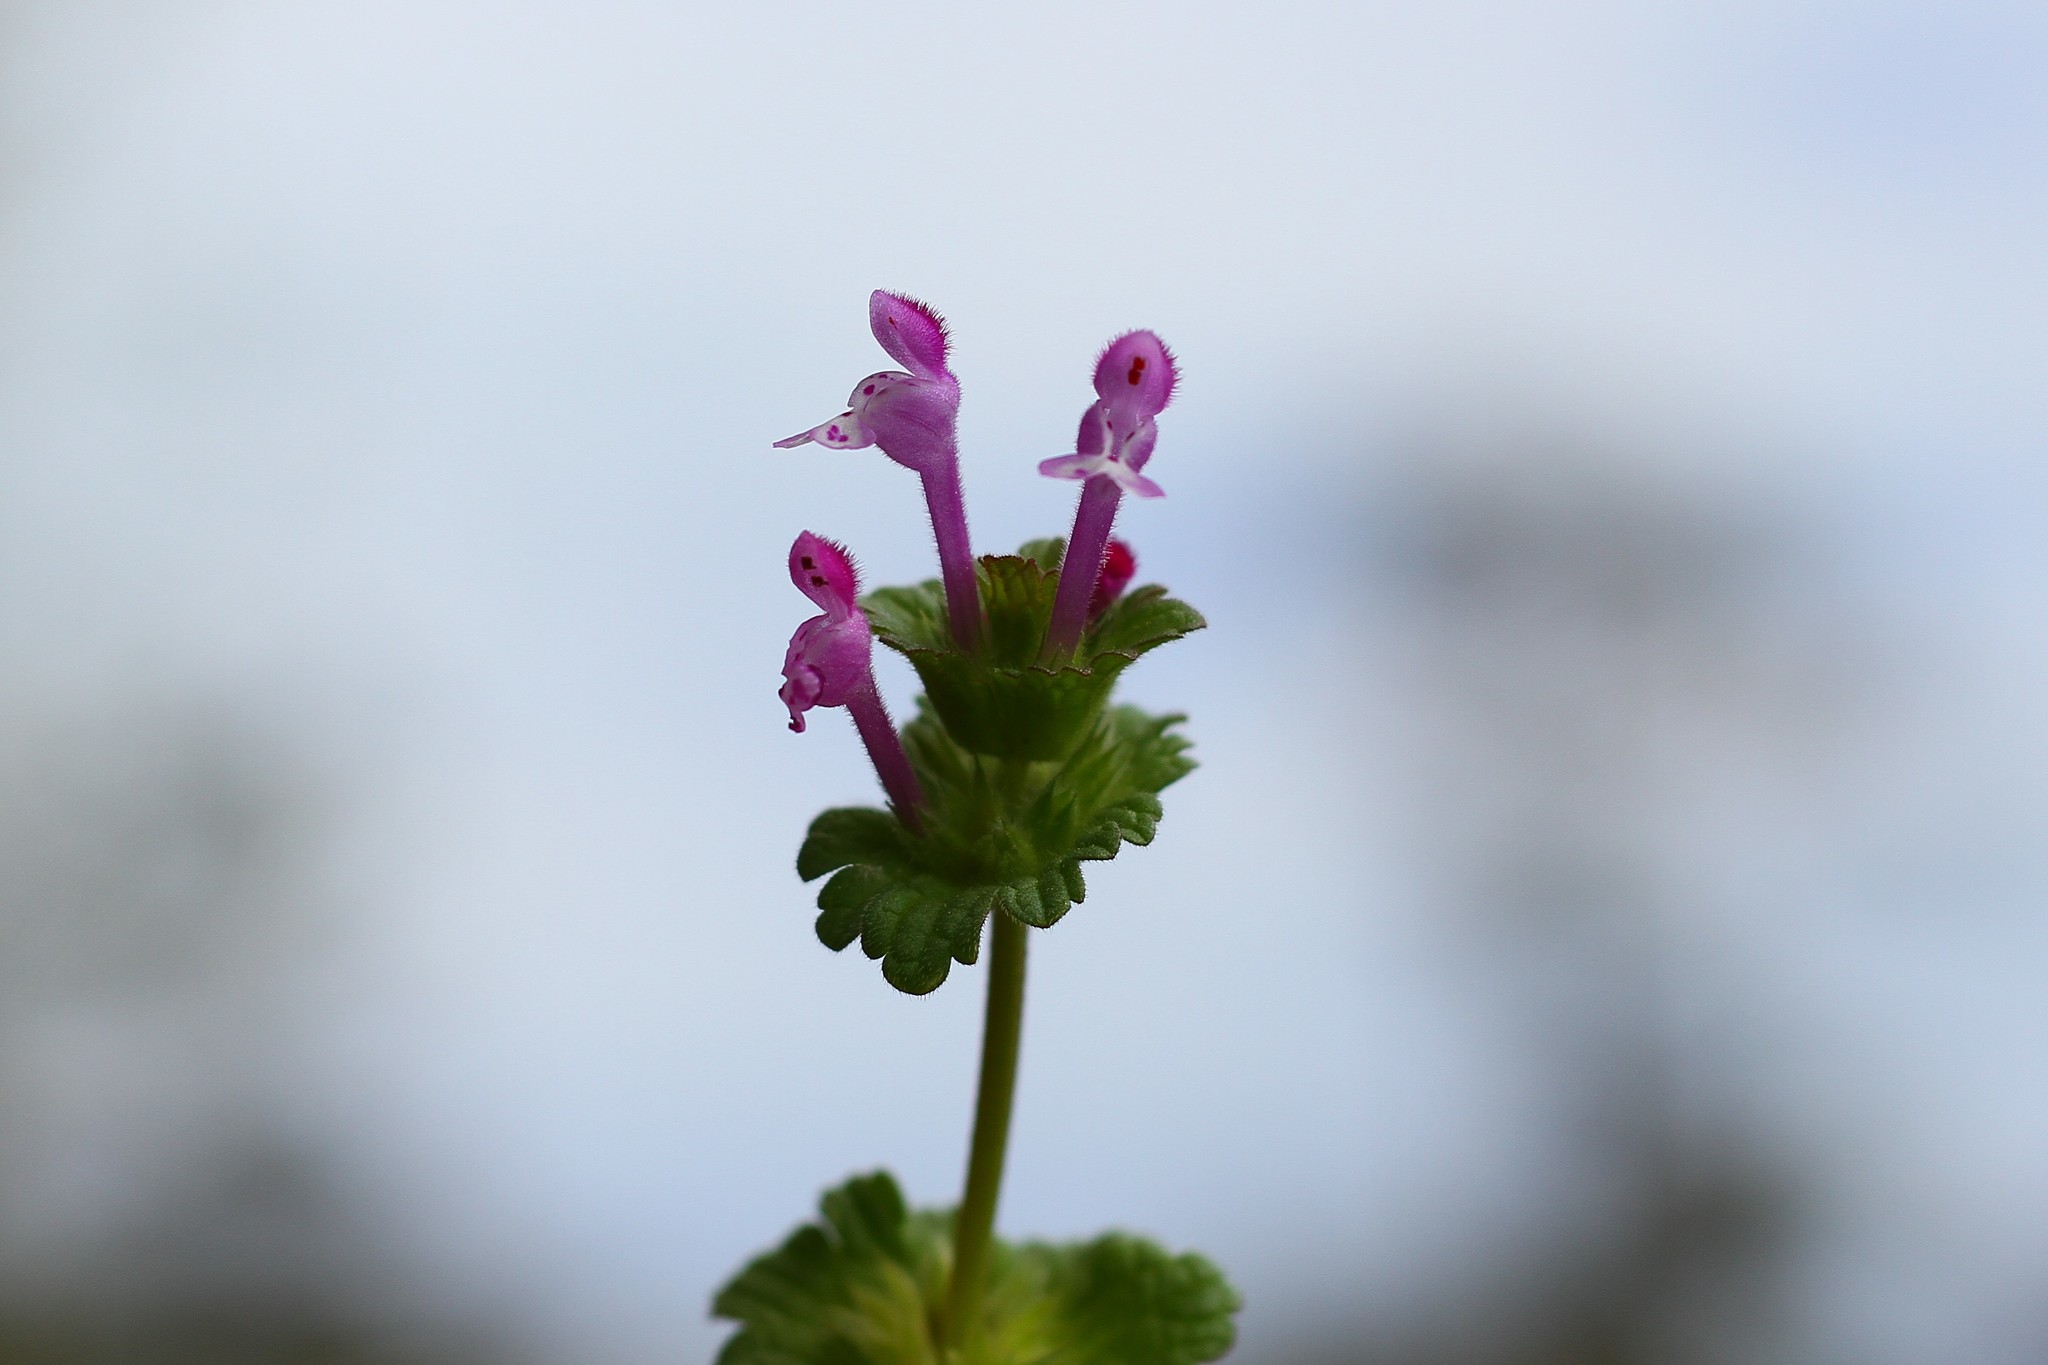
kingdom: Plantae
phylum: Tracheophyta
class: Magnoliopsida
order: Lamiales
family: Lamiaceae
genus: Lamium
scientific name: Lamium amplexicaule
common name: Henbit dead-nettle
